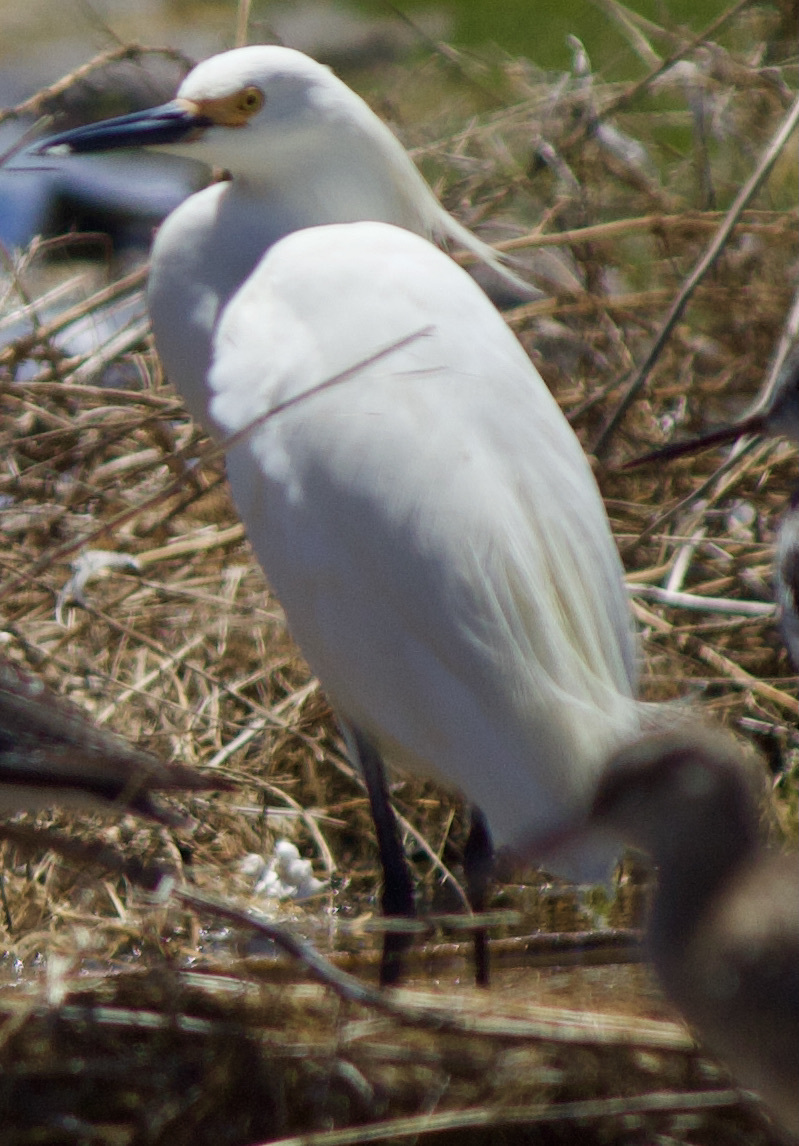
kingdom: Animalia
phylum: Chordata
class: Aves
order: Pelecaniformes
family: Ardeidae
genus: Egretta
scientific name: Egretta thula
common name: Snowy egret
